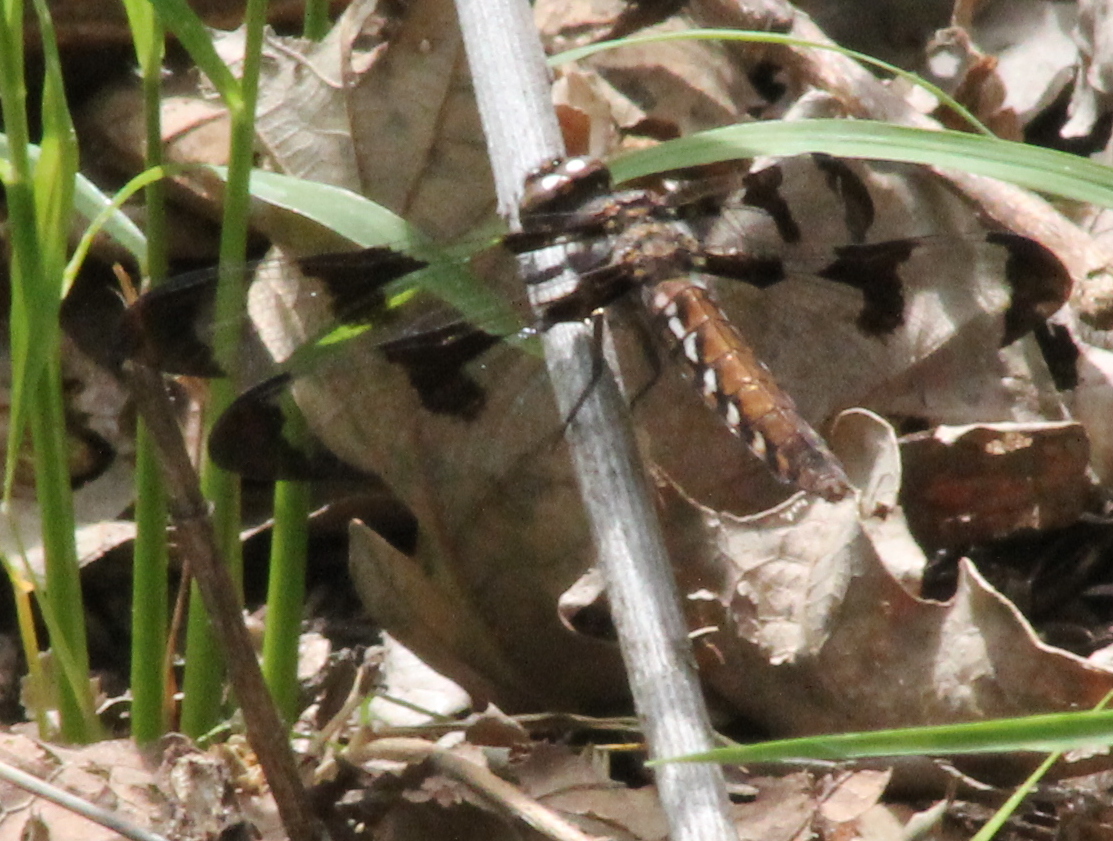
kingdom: Animalia
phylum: Arthropoda
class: Insecta
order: Odonata
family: Libellulidae
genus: Plathemis
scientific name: Plathemis lydia
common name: Common whitetail
